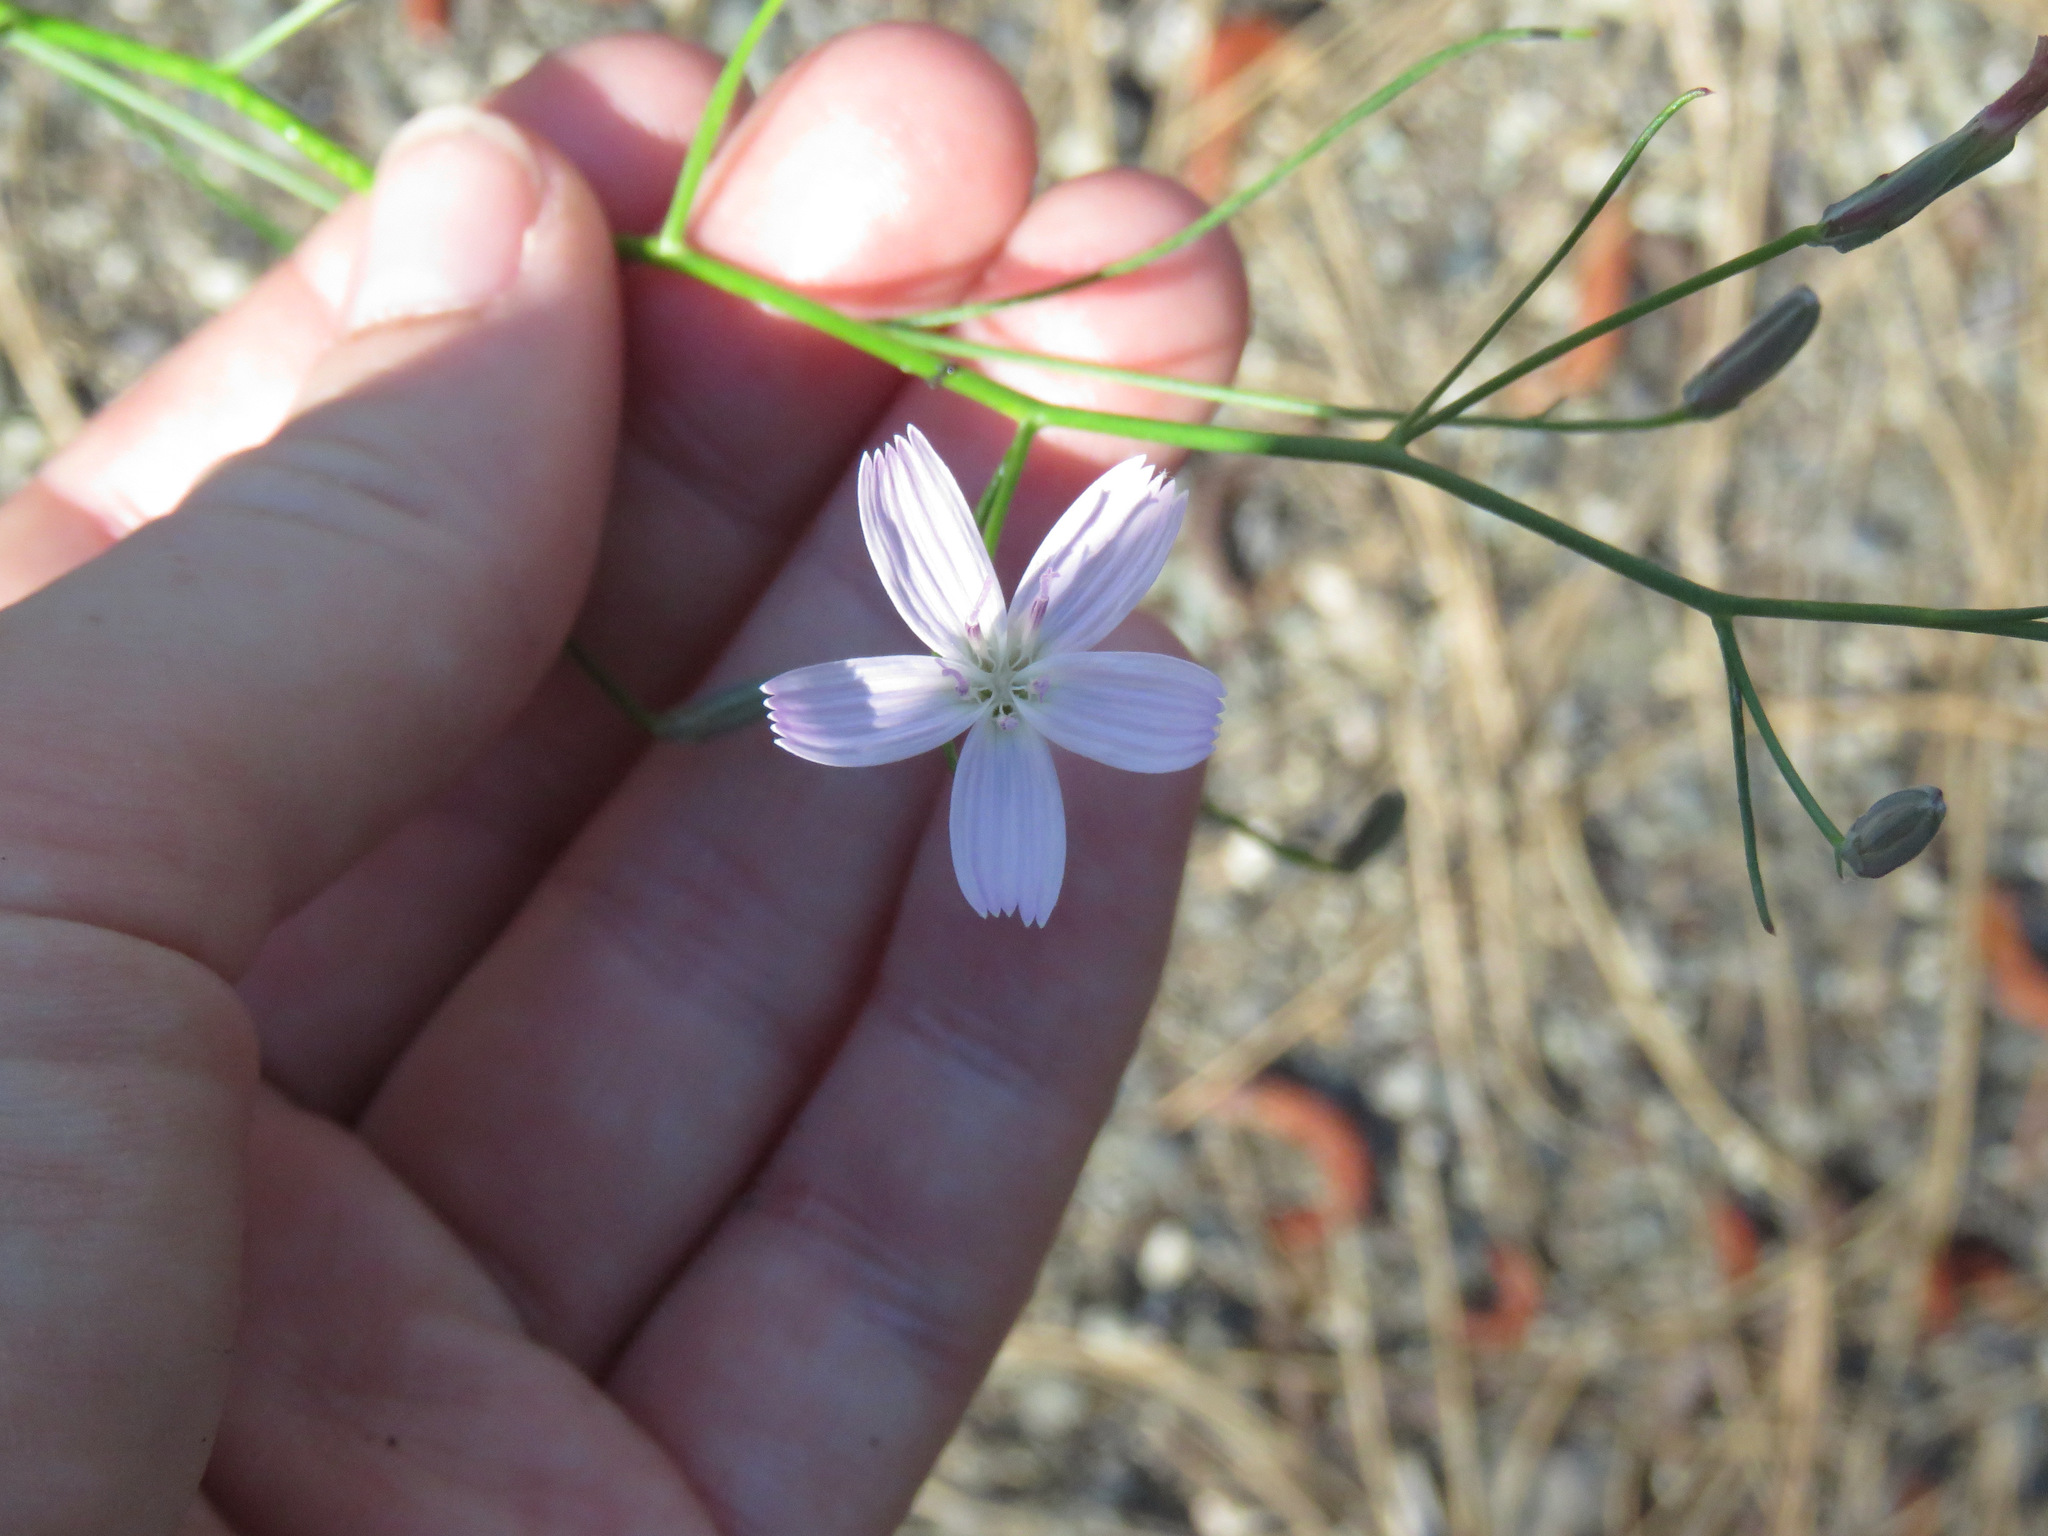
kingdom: Plantae
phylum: Tracheophyta
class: Magnoliopsida
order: Asterales
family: Asteraceae
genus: Lygodesmia
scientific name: Lygodesmia juncea
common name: Common skeletonweed
